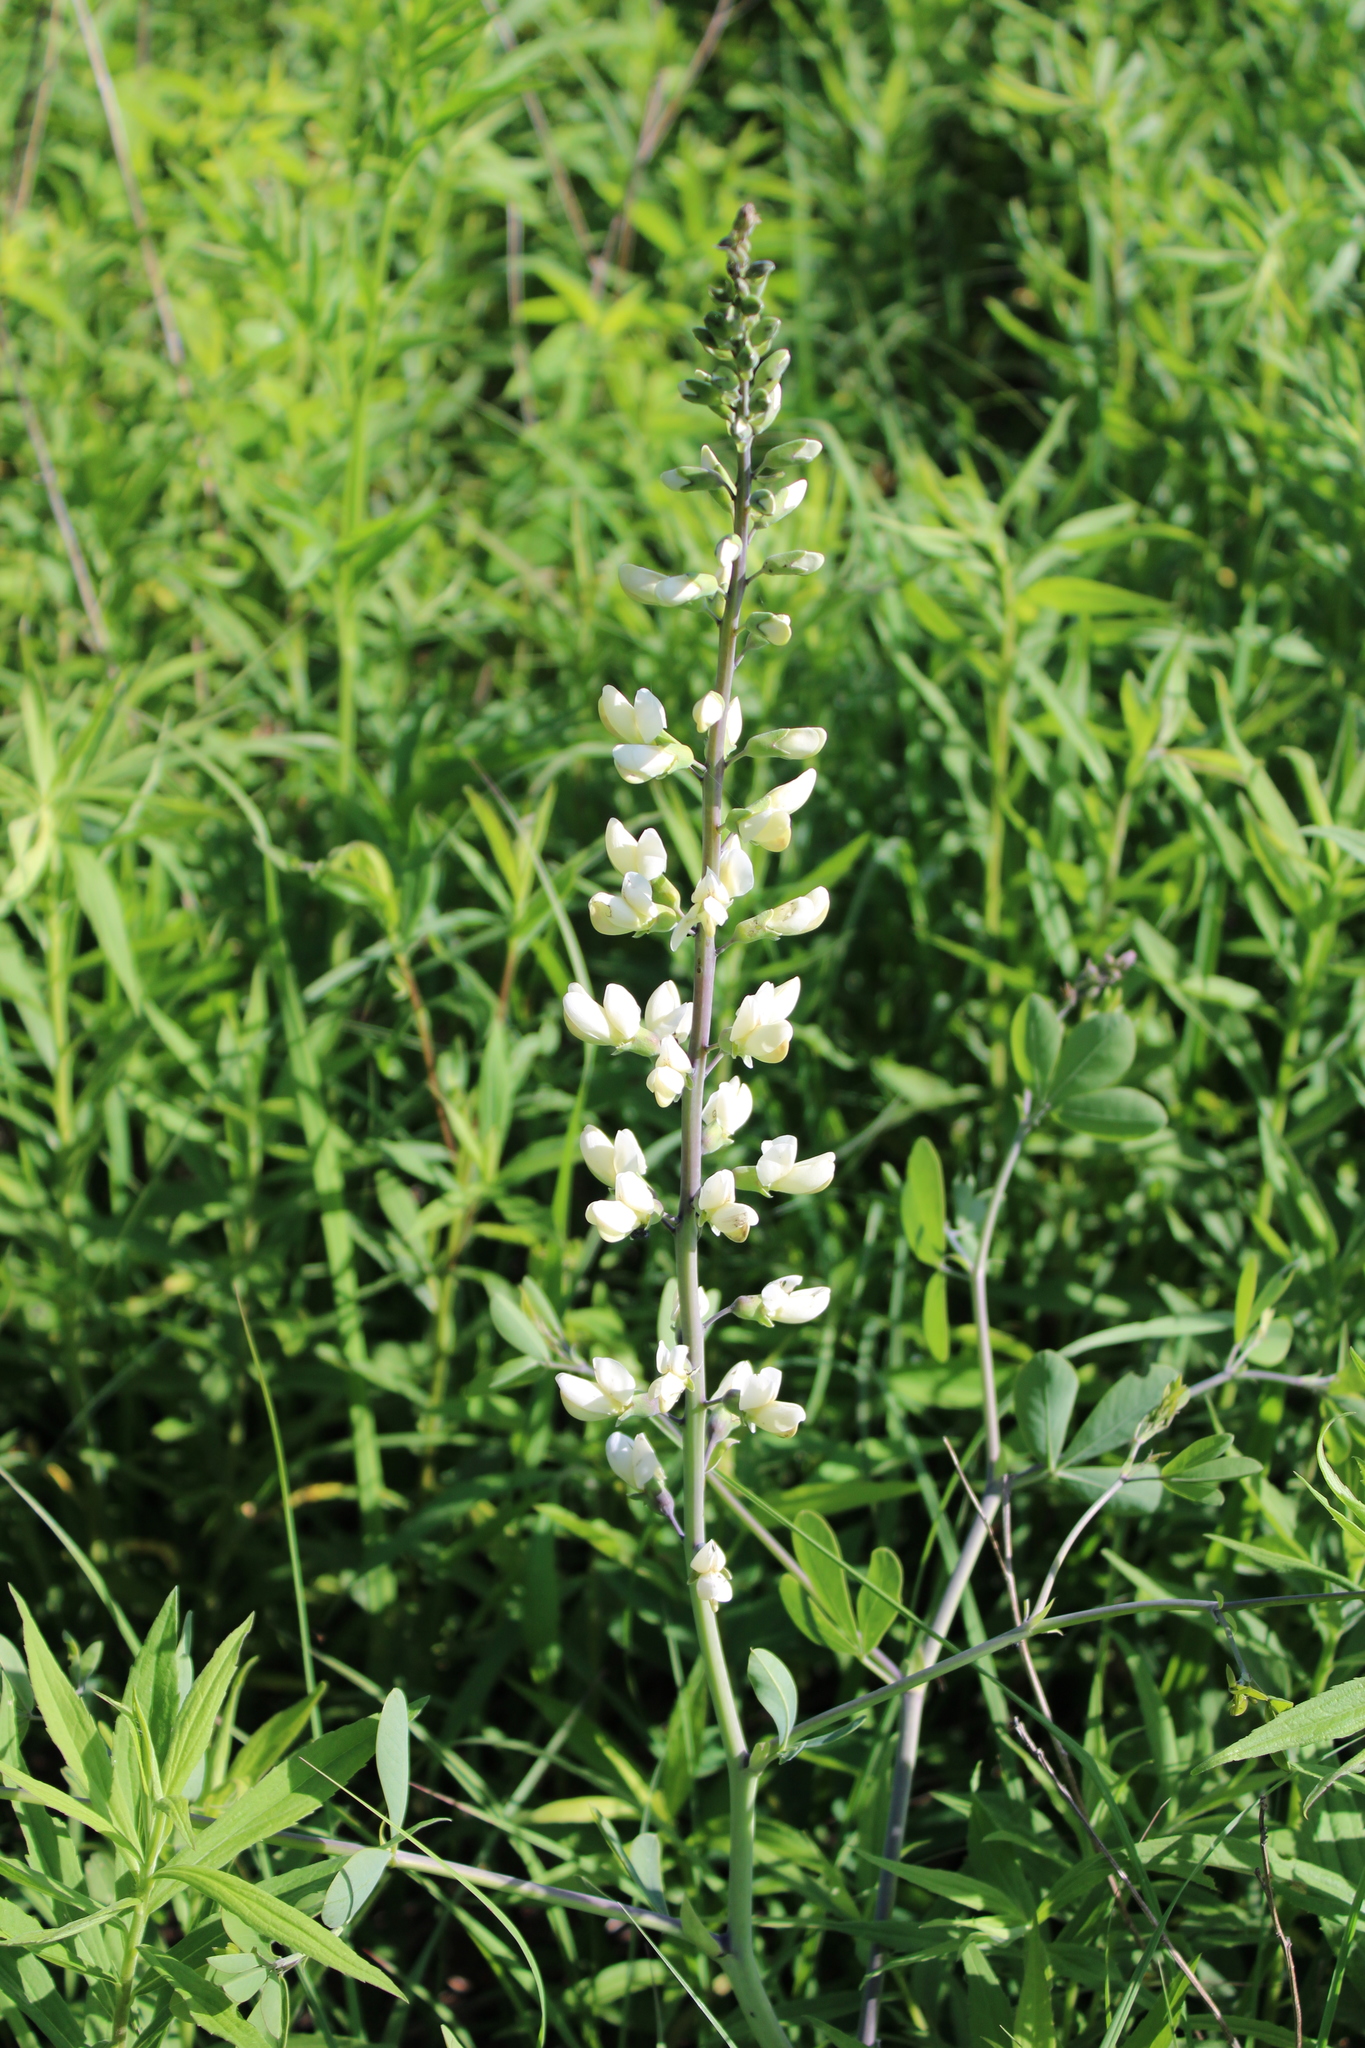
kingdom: Plantae
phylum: Tracheophyta
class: Magnoliopsida
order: Fabales
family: Fabaceae
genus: Baptisia
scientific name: Baptisia alba
